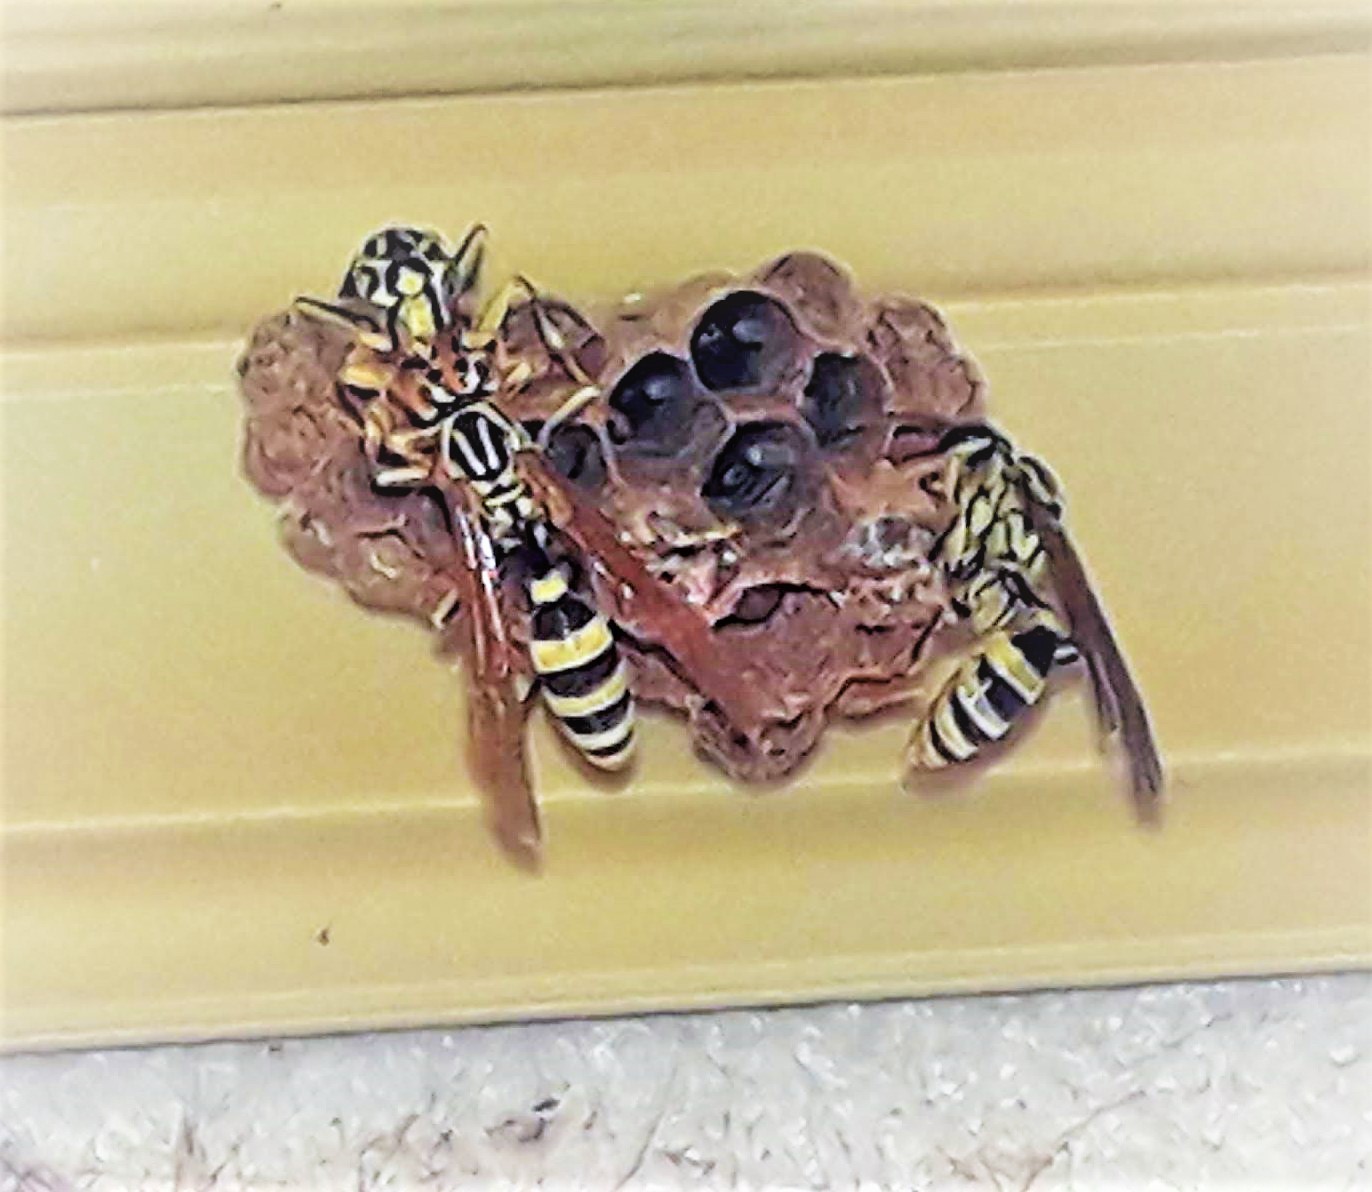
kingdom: Animalia
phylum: Arthropoda
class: Insecta
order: Hymenoptera
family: Vespidae
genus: Mischocyttarus
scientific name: Mischocyttarus basimacula
